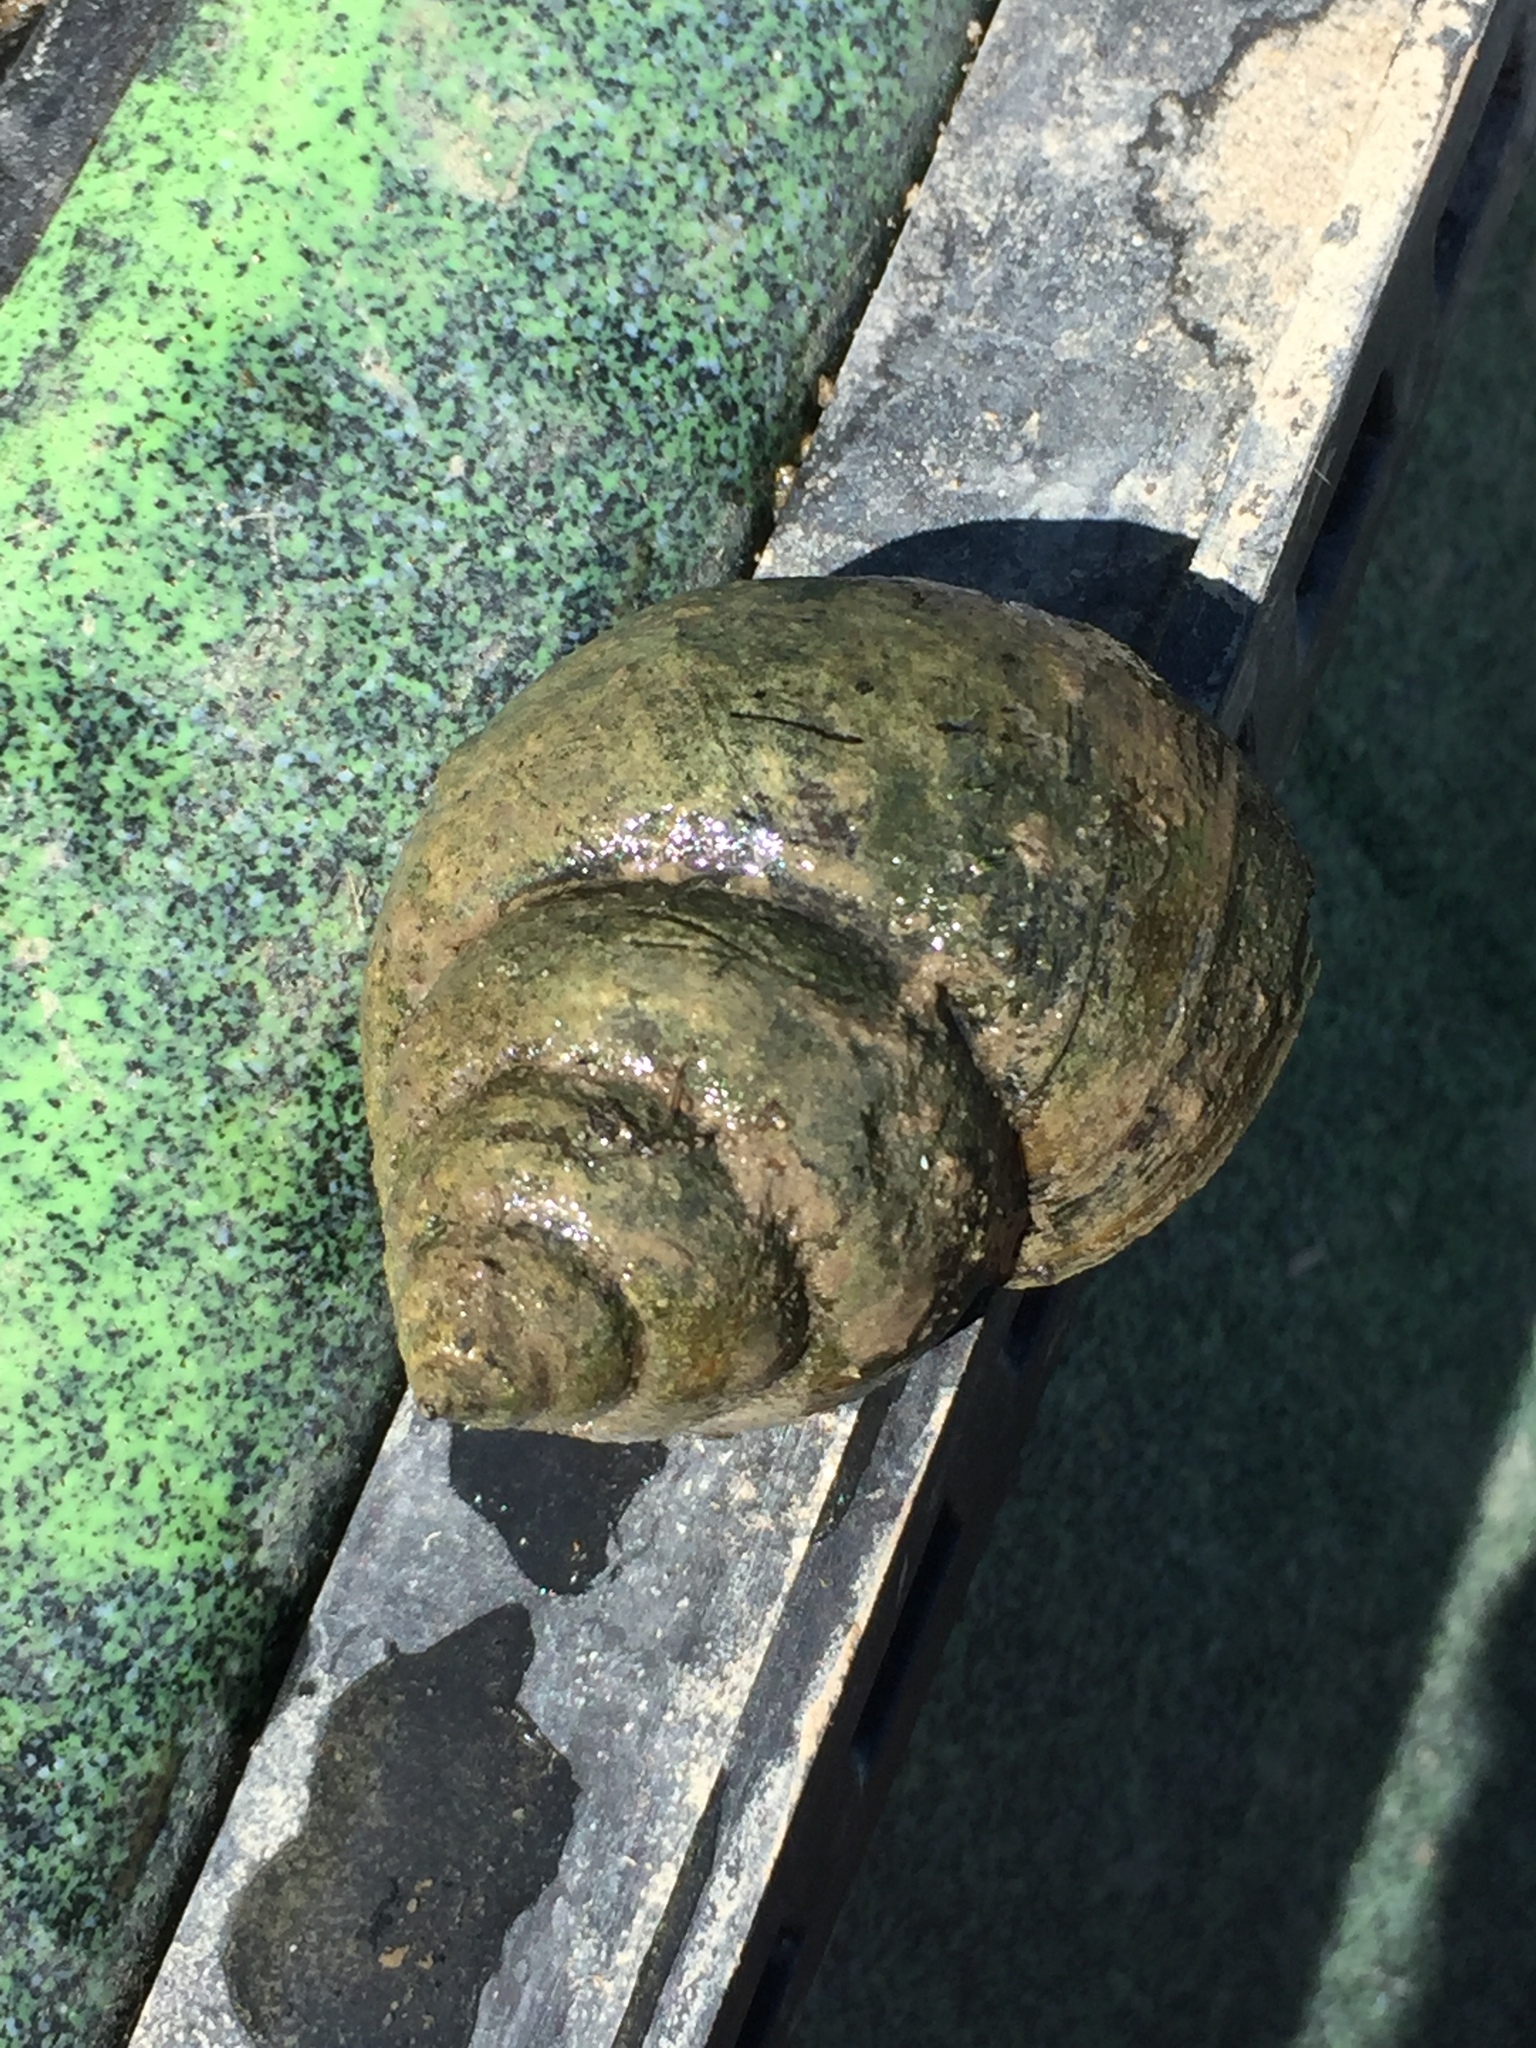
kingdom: Animalia
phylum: Mollusca
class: Gastropoda
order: Architaenioglossa
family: Viviparidae
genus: Cipangopaludina
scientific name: Cipangopaludina chinensis
